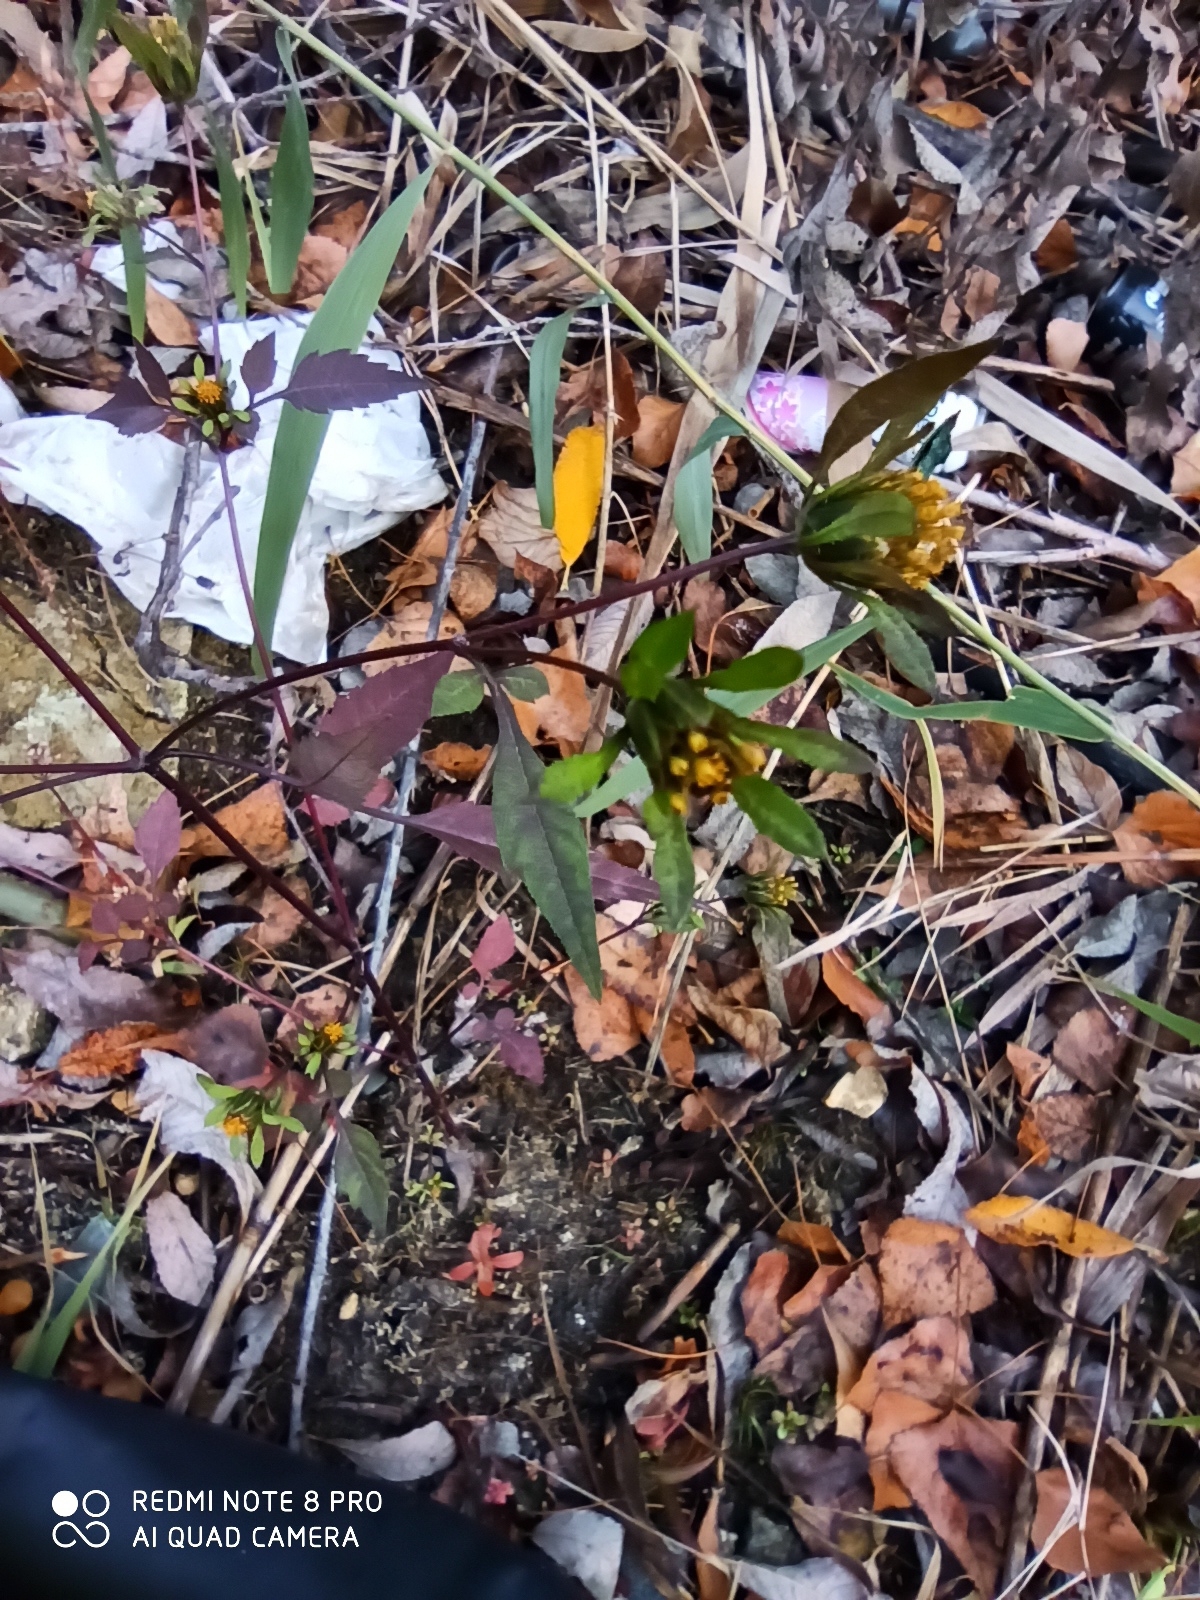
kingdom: Plantae
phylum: Tracheophyta
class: Magnoliopsida
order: Asterales
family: Asteraceae
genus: Bidens
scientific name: Bidens frondosa
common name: Beggarticks
